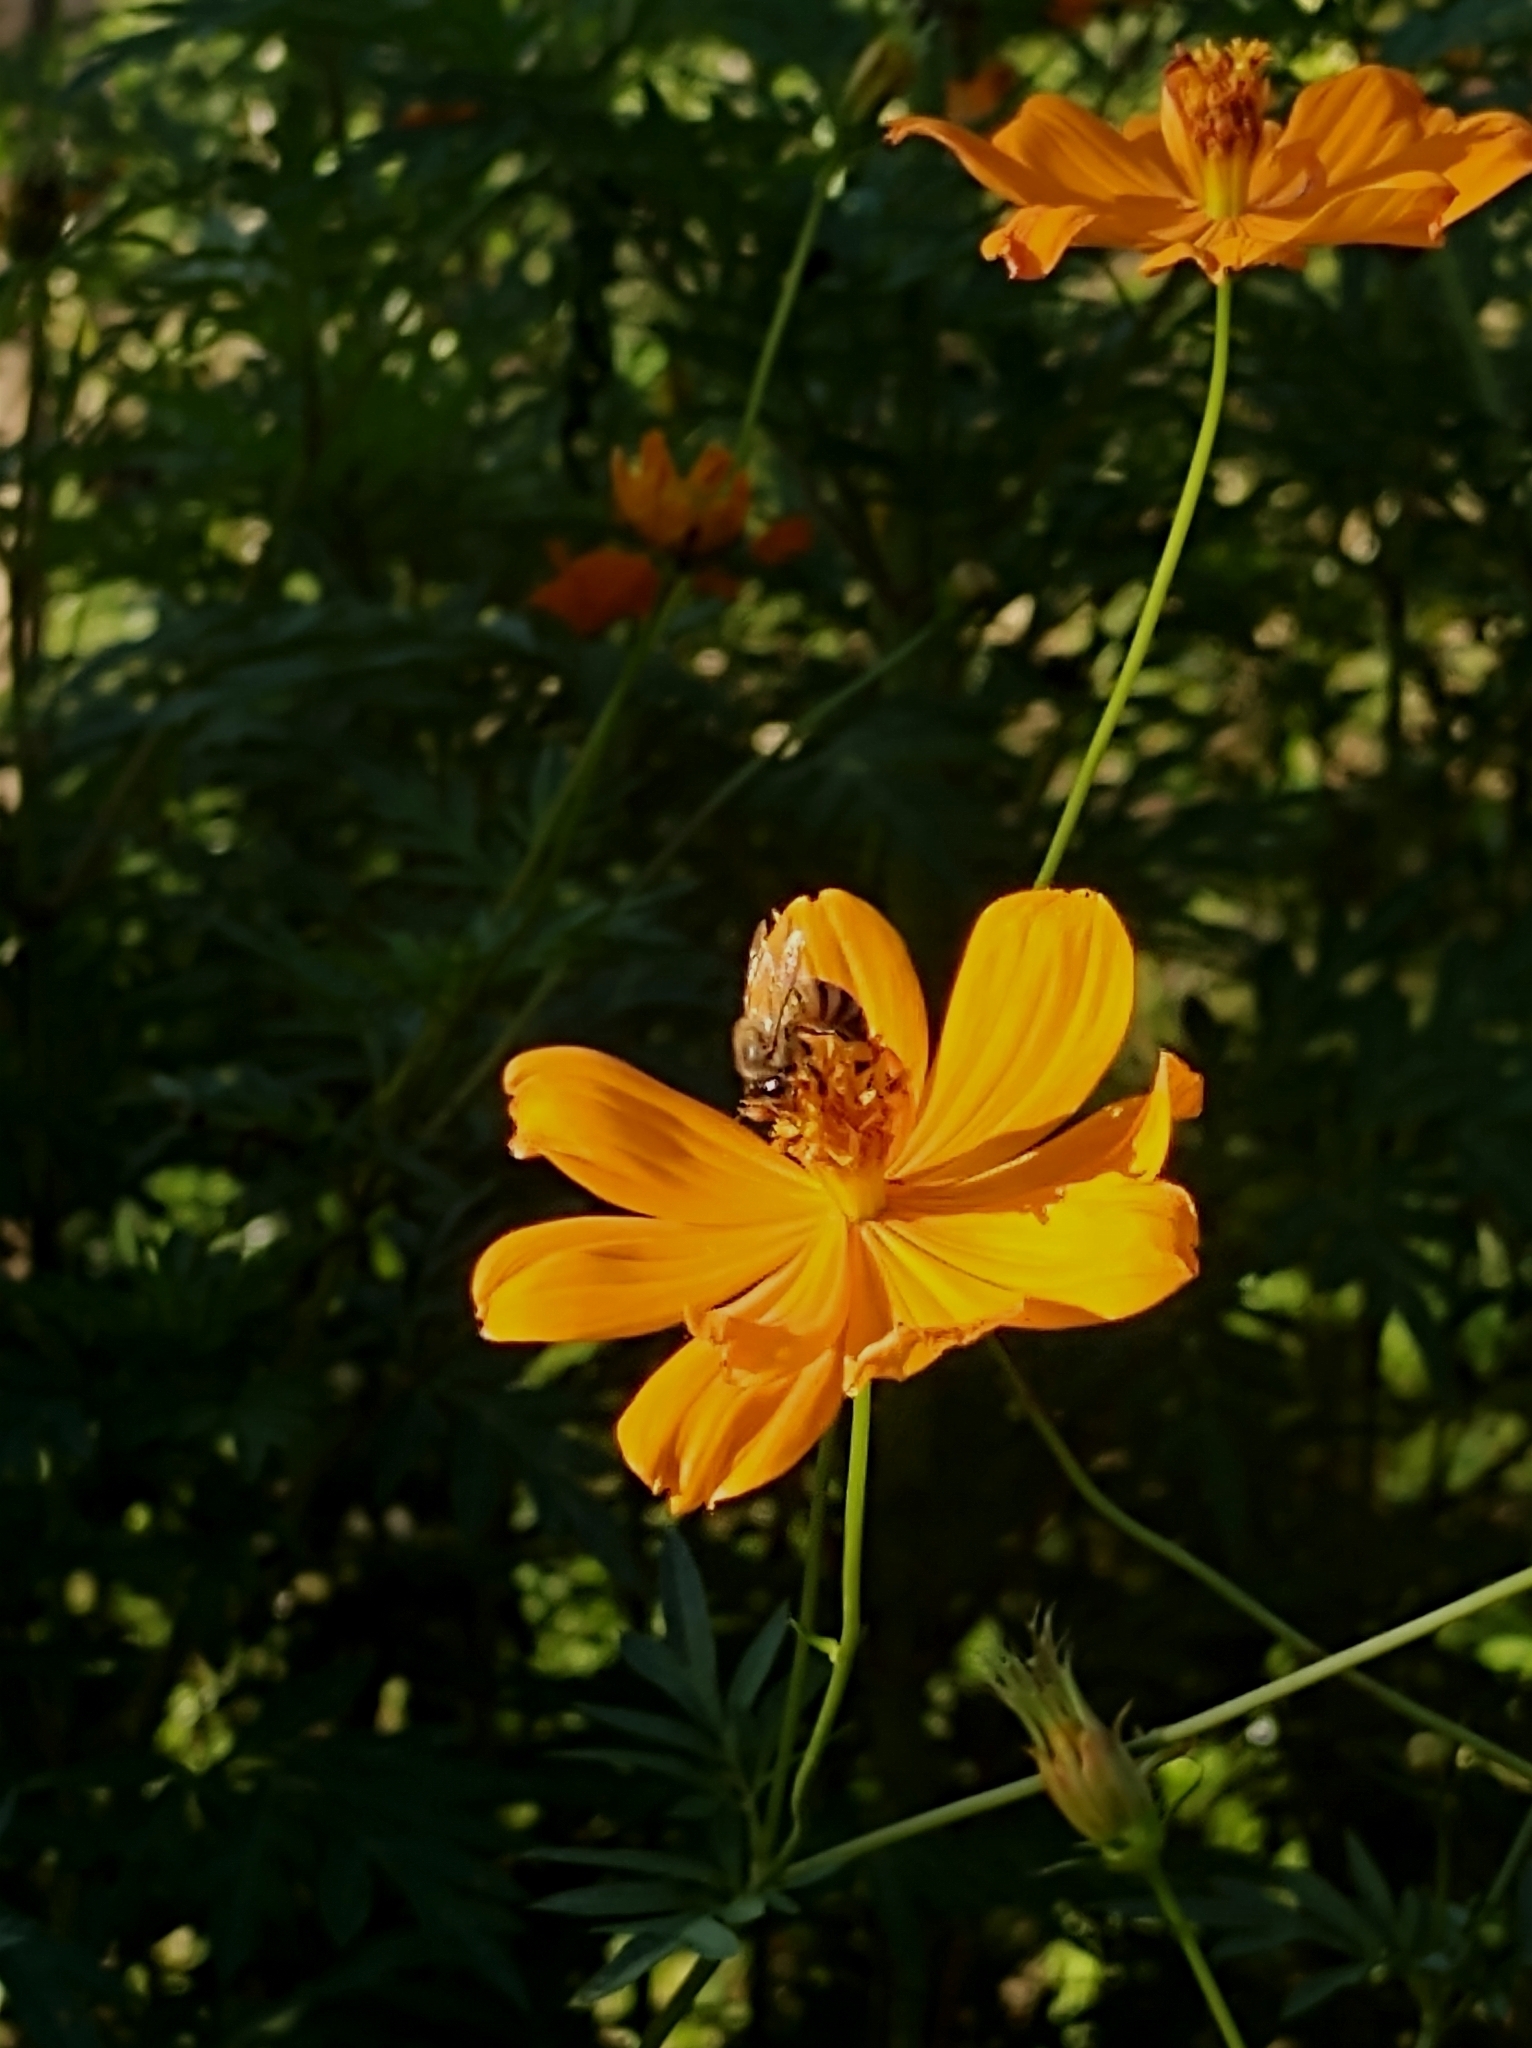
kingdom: Animalia
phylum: Arthropoda
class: Insecta
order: Hymenoptera
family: Apidae
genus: Apis
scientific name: Apis mellifera
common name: Honey bee
